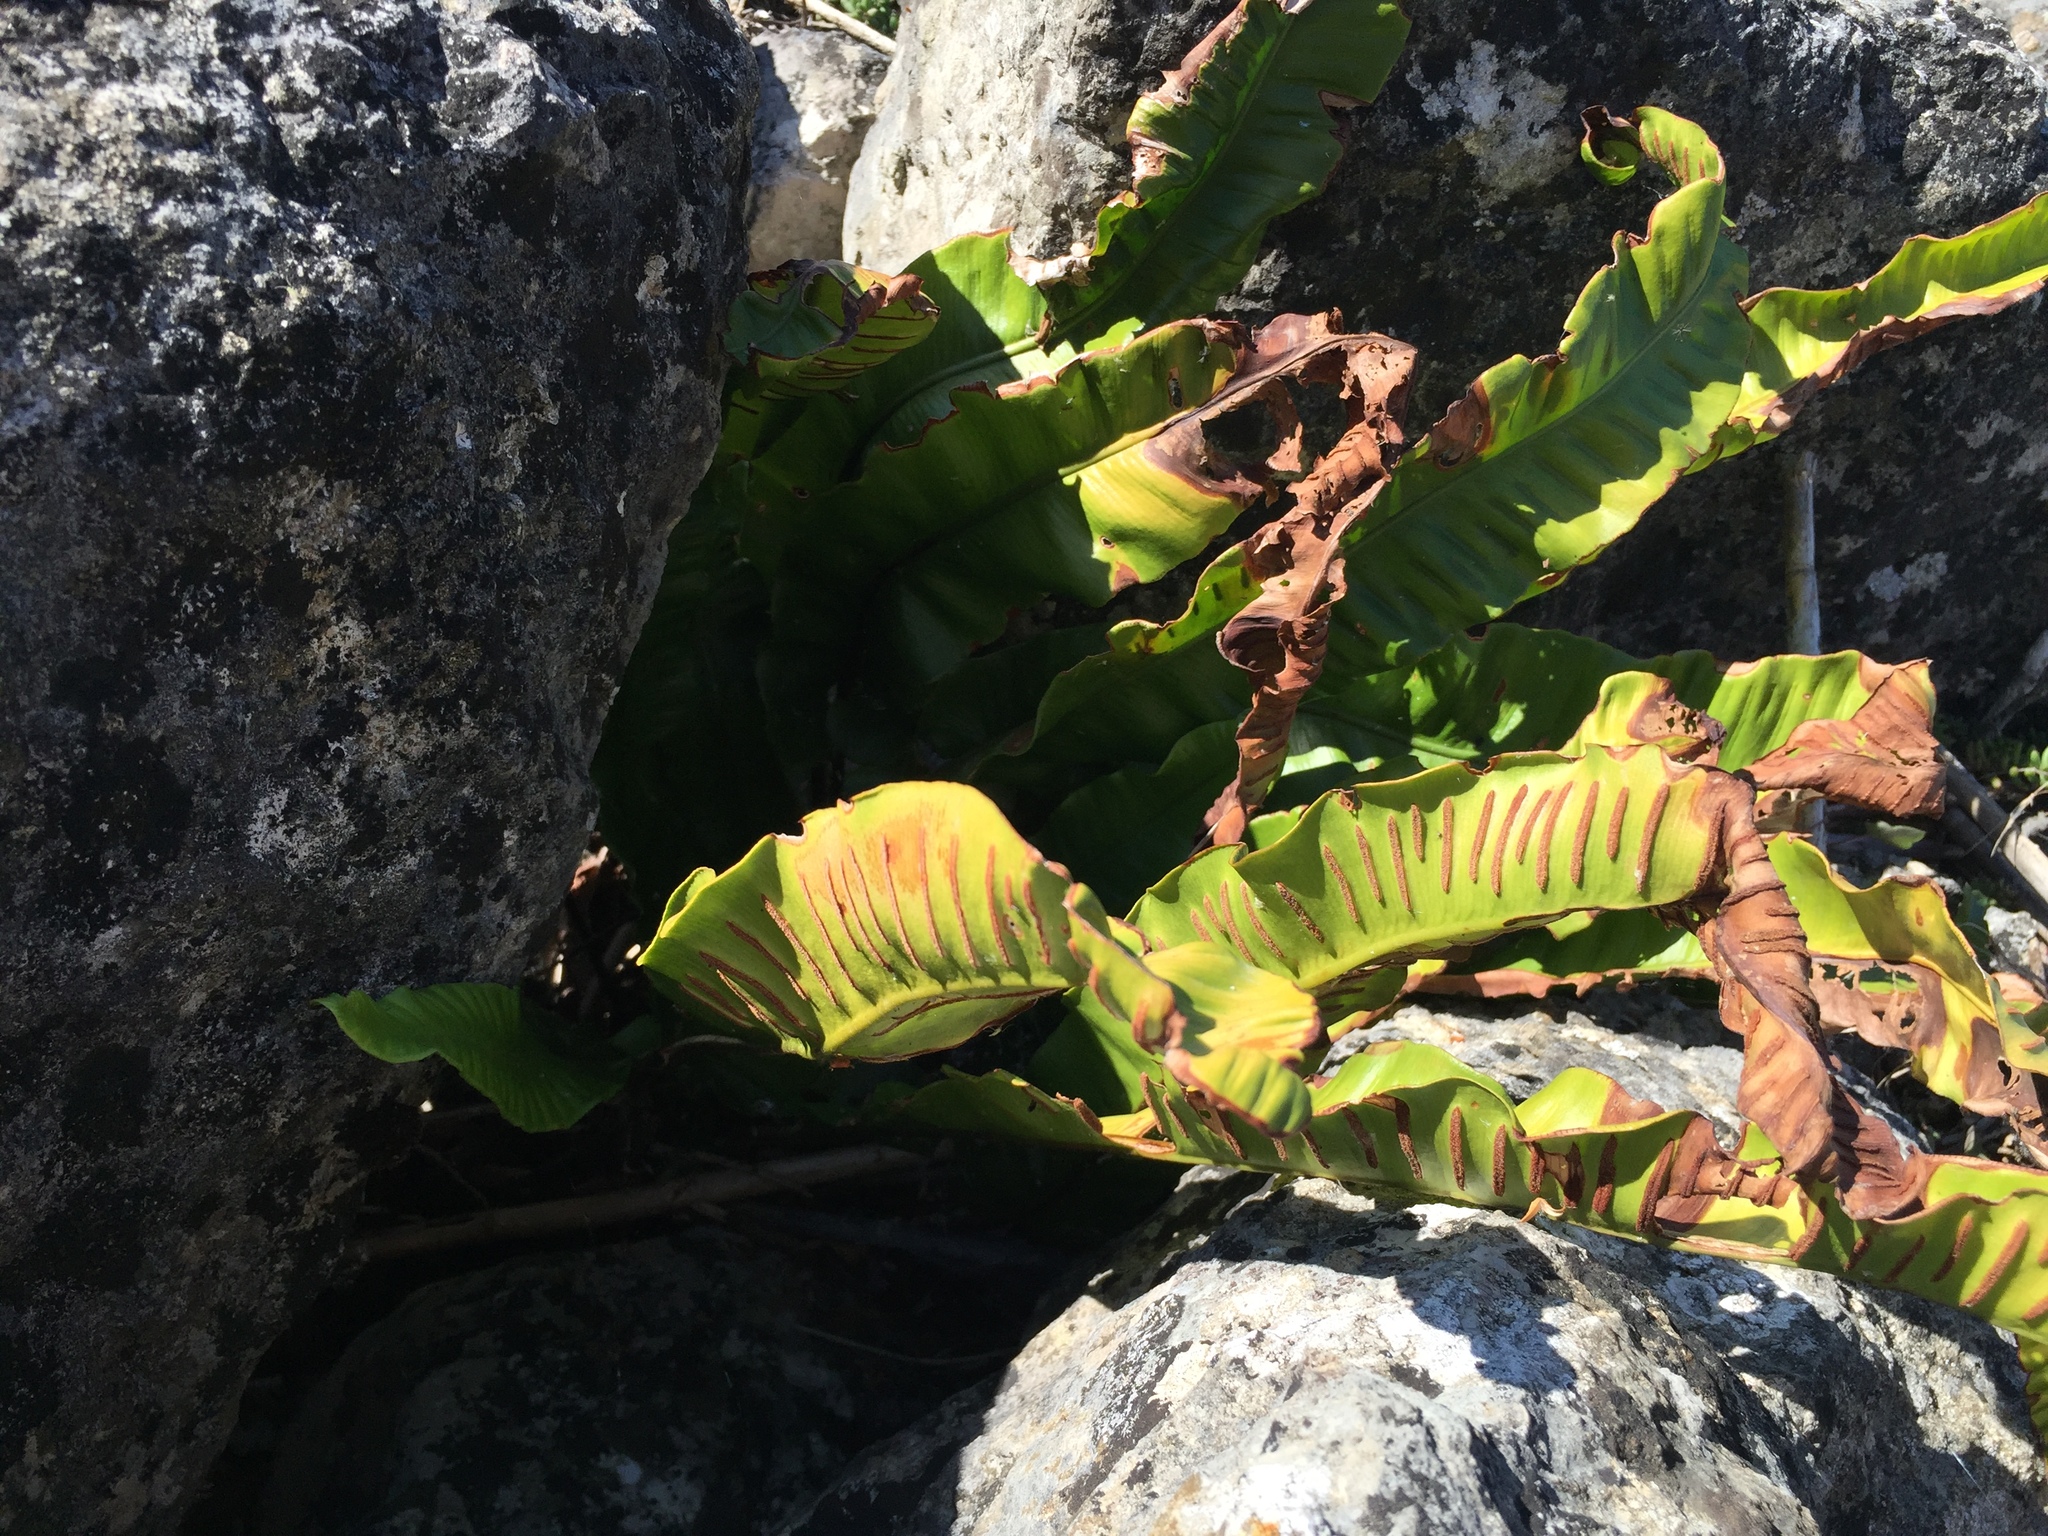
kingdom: Plantae
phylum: Tracheophyta
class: Polypodiopsida
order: Polypodiales
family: Aspleniaceae
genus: Asplenium
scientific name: Asplenium scolopendrium
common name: Hart's-tongue fern
